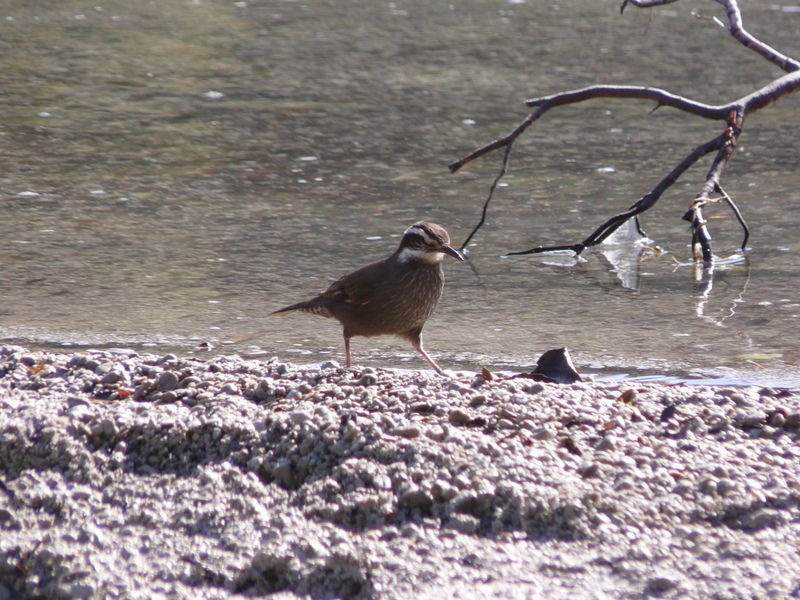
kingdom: Animalia
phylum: Chordata
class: Aves
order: Passeriformes
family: Furnariidae
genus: Cinclodes
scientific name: Cinclodes patagonicus
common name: Dark-bellied cinclodes
